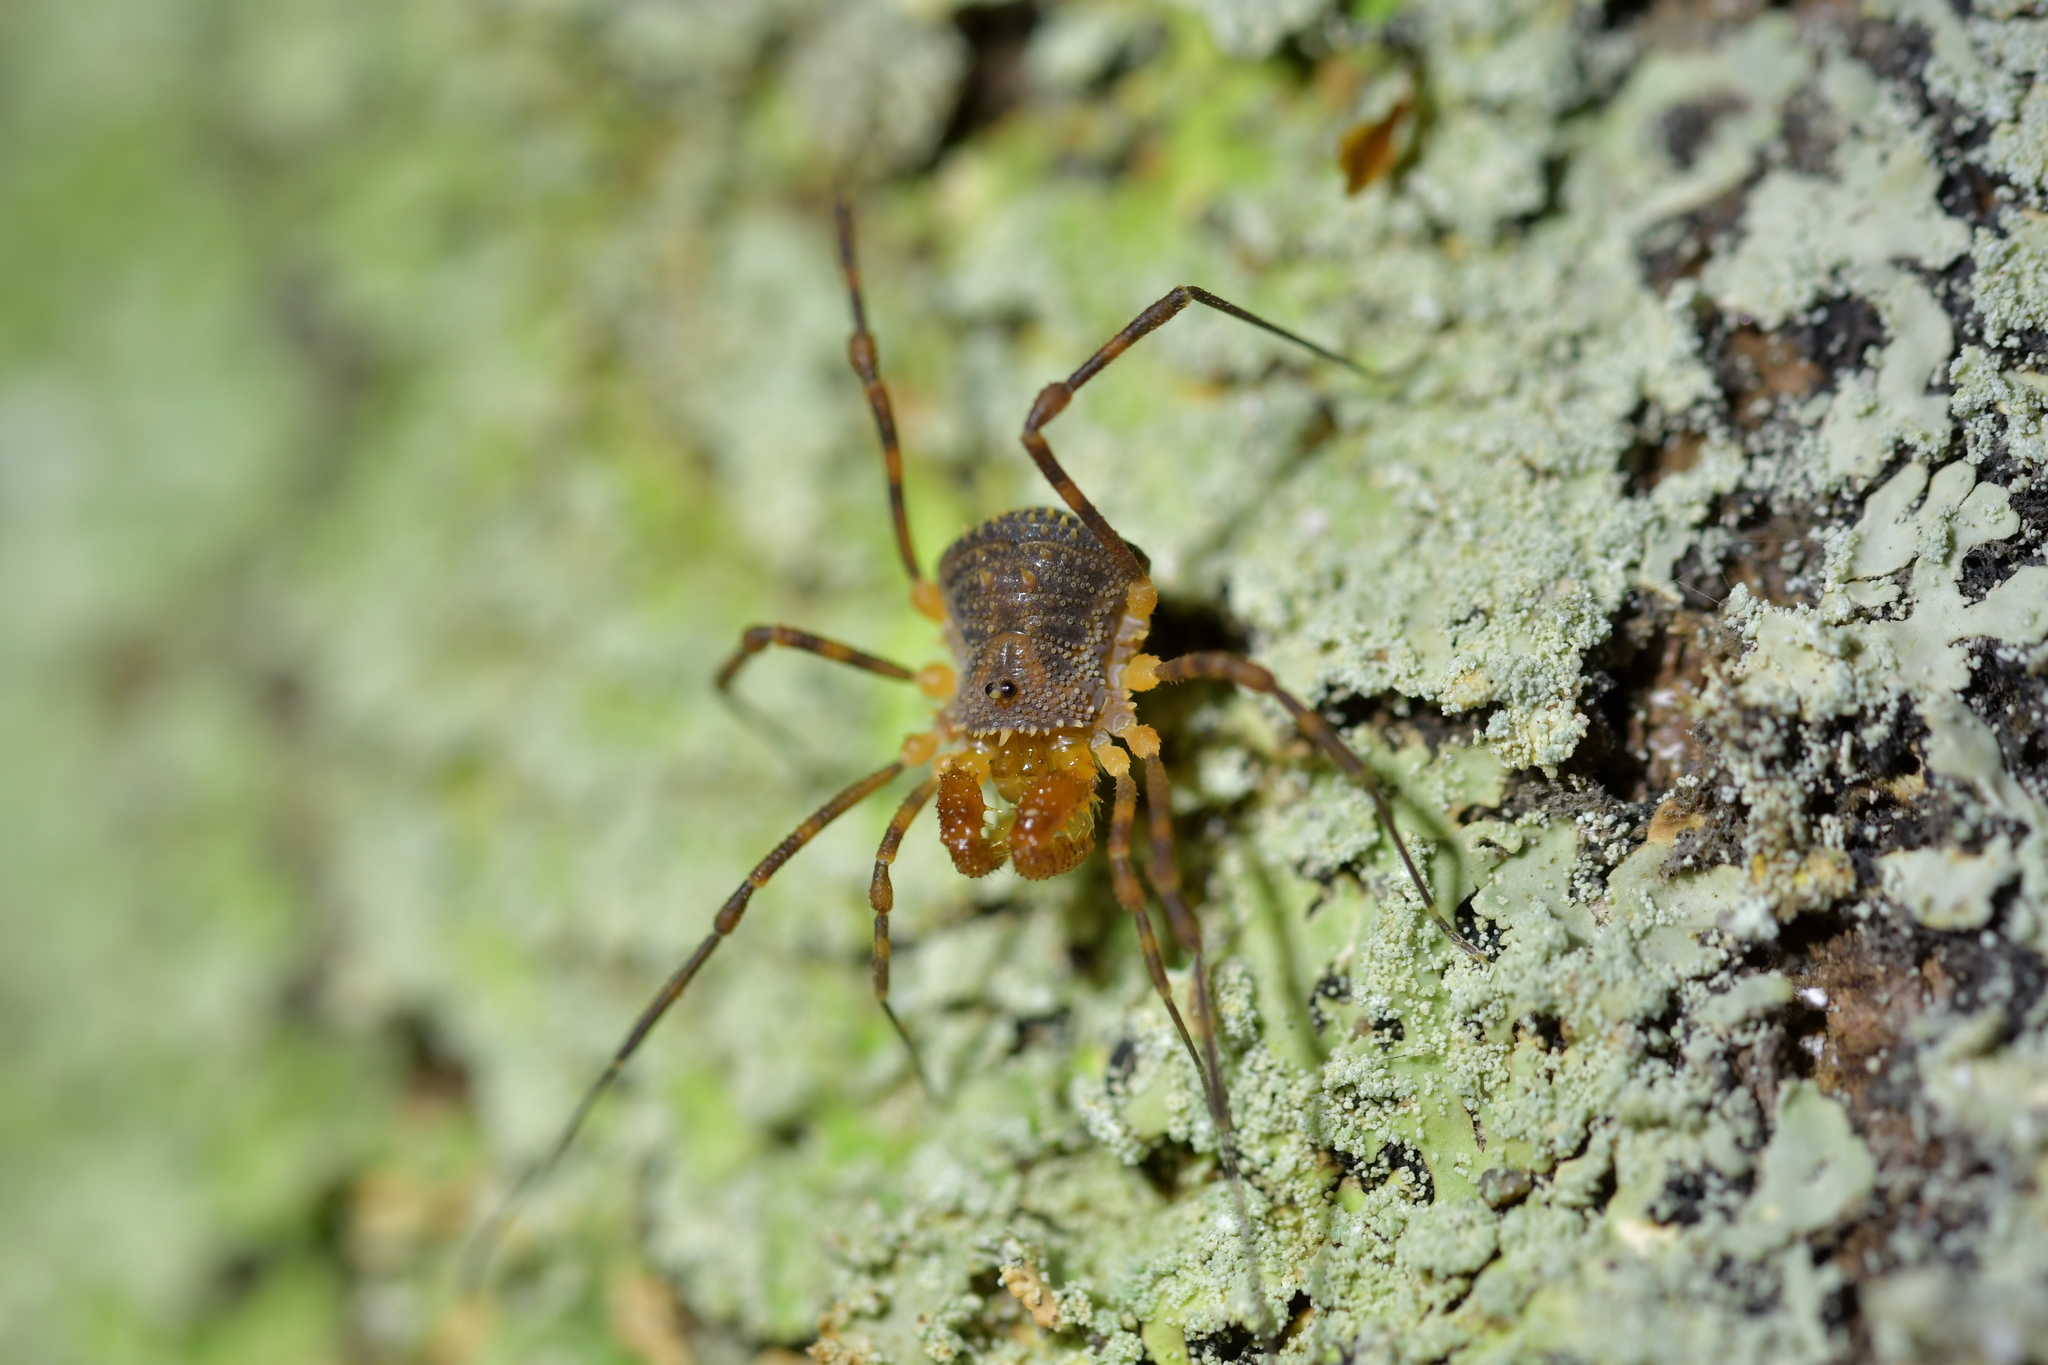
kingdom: Animalia
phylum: Arthropoda
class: Arachnida
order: Opiliones
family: Triaenonychidae
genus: Prasma
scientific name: Prasma tuberculata
